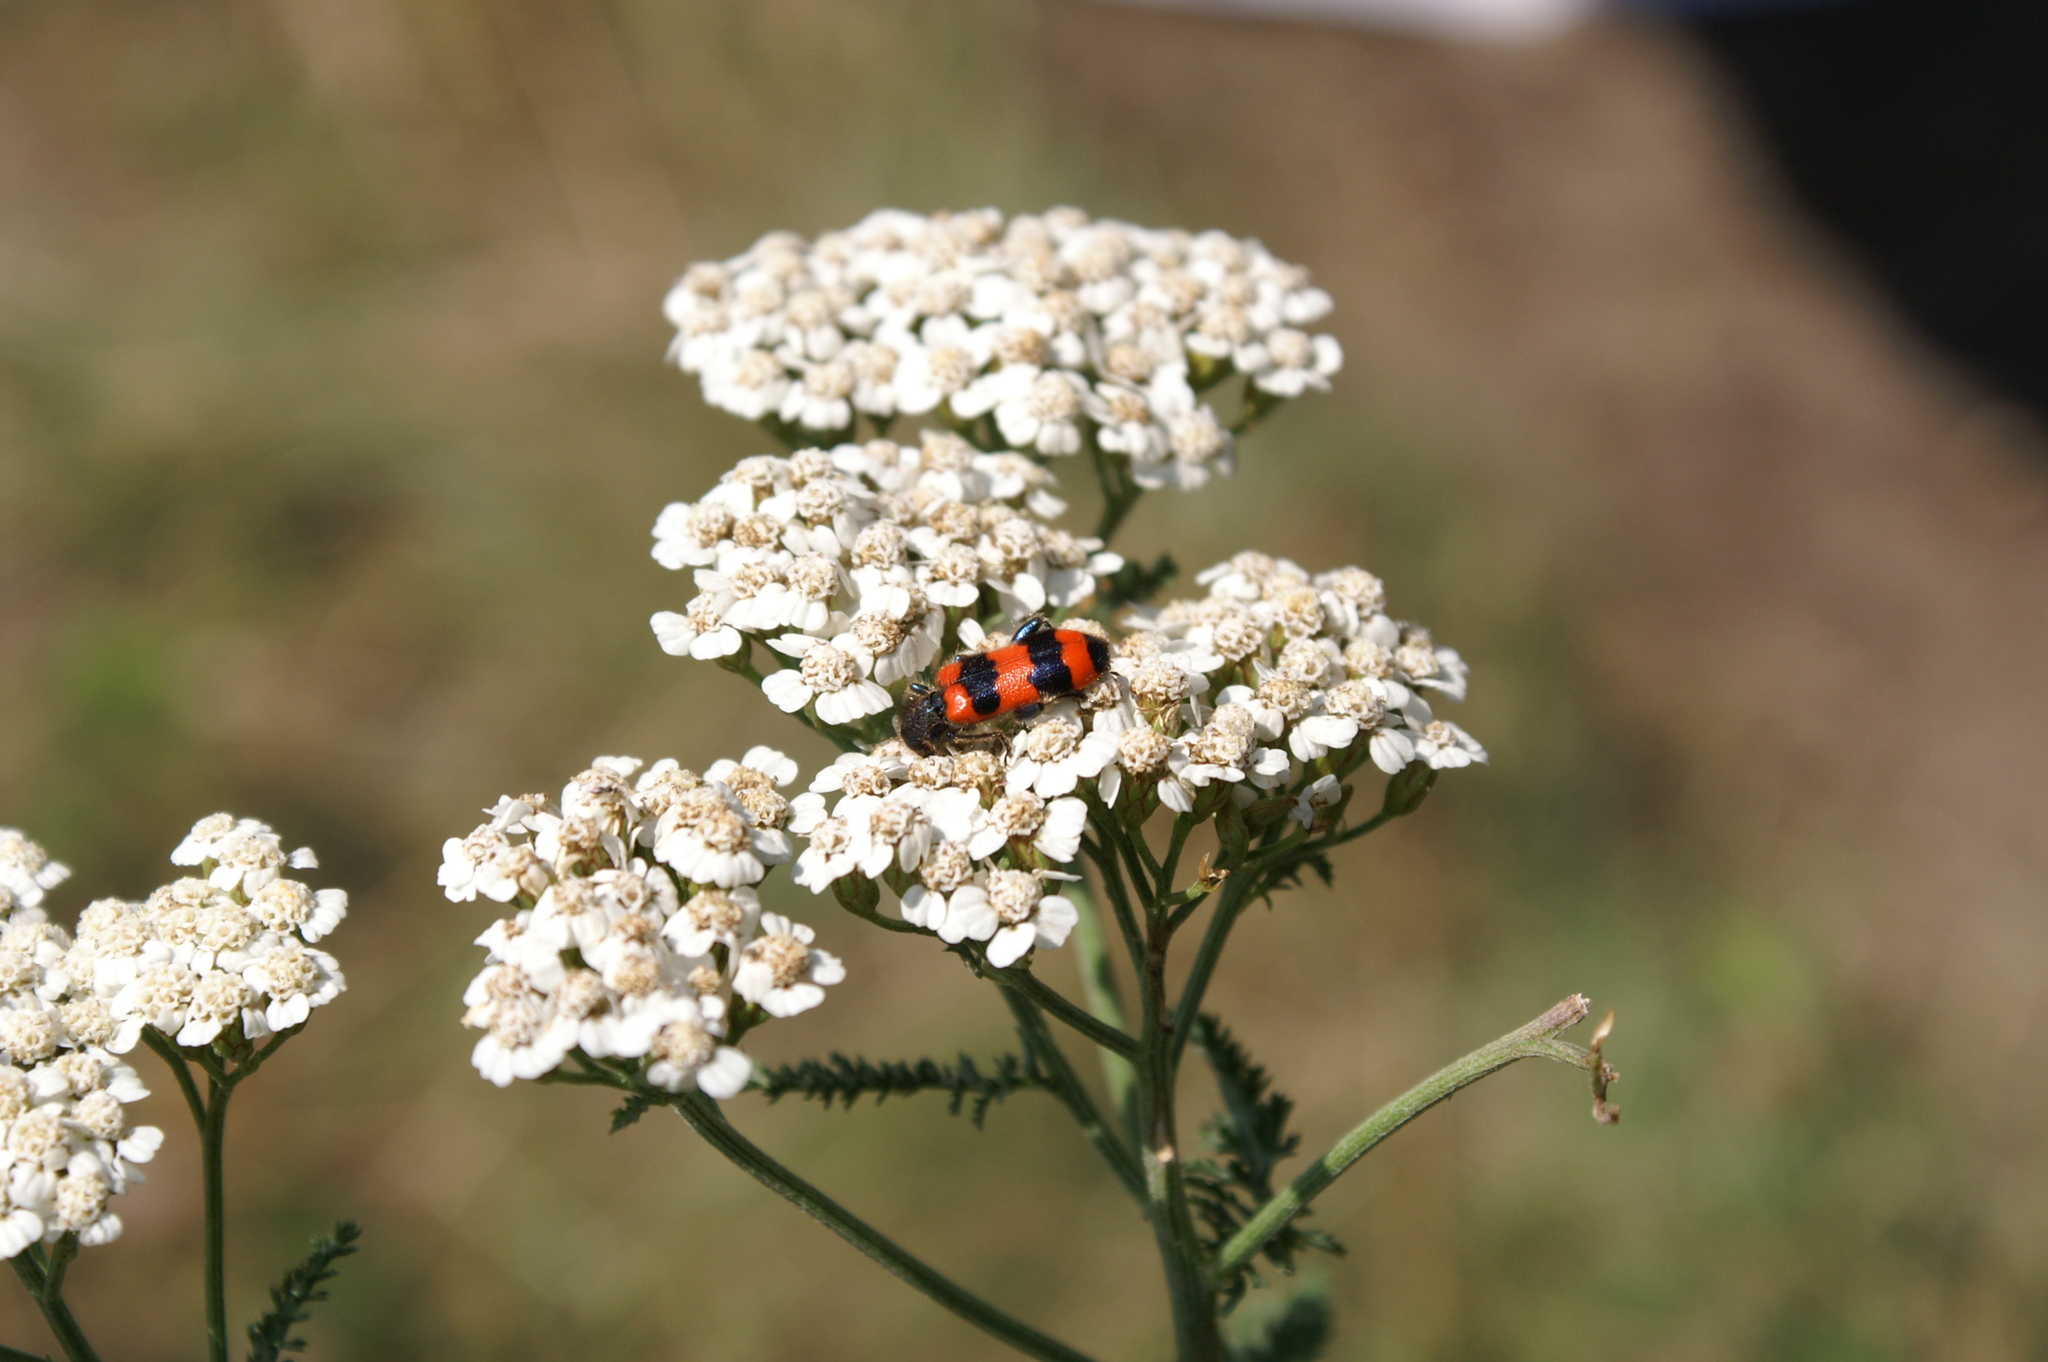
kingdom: Animalia
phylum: Arthropoda
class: Insecta
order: Coleoptera
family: Cleridae
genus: Trichodes
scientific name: Trichodes apiarius
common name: Bee-eating beetle
